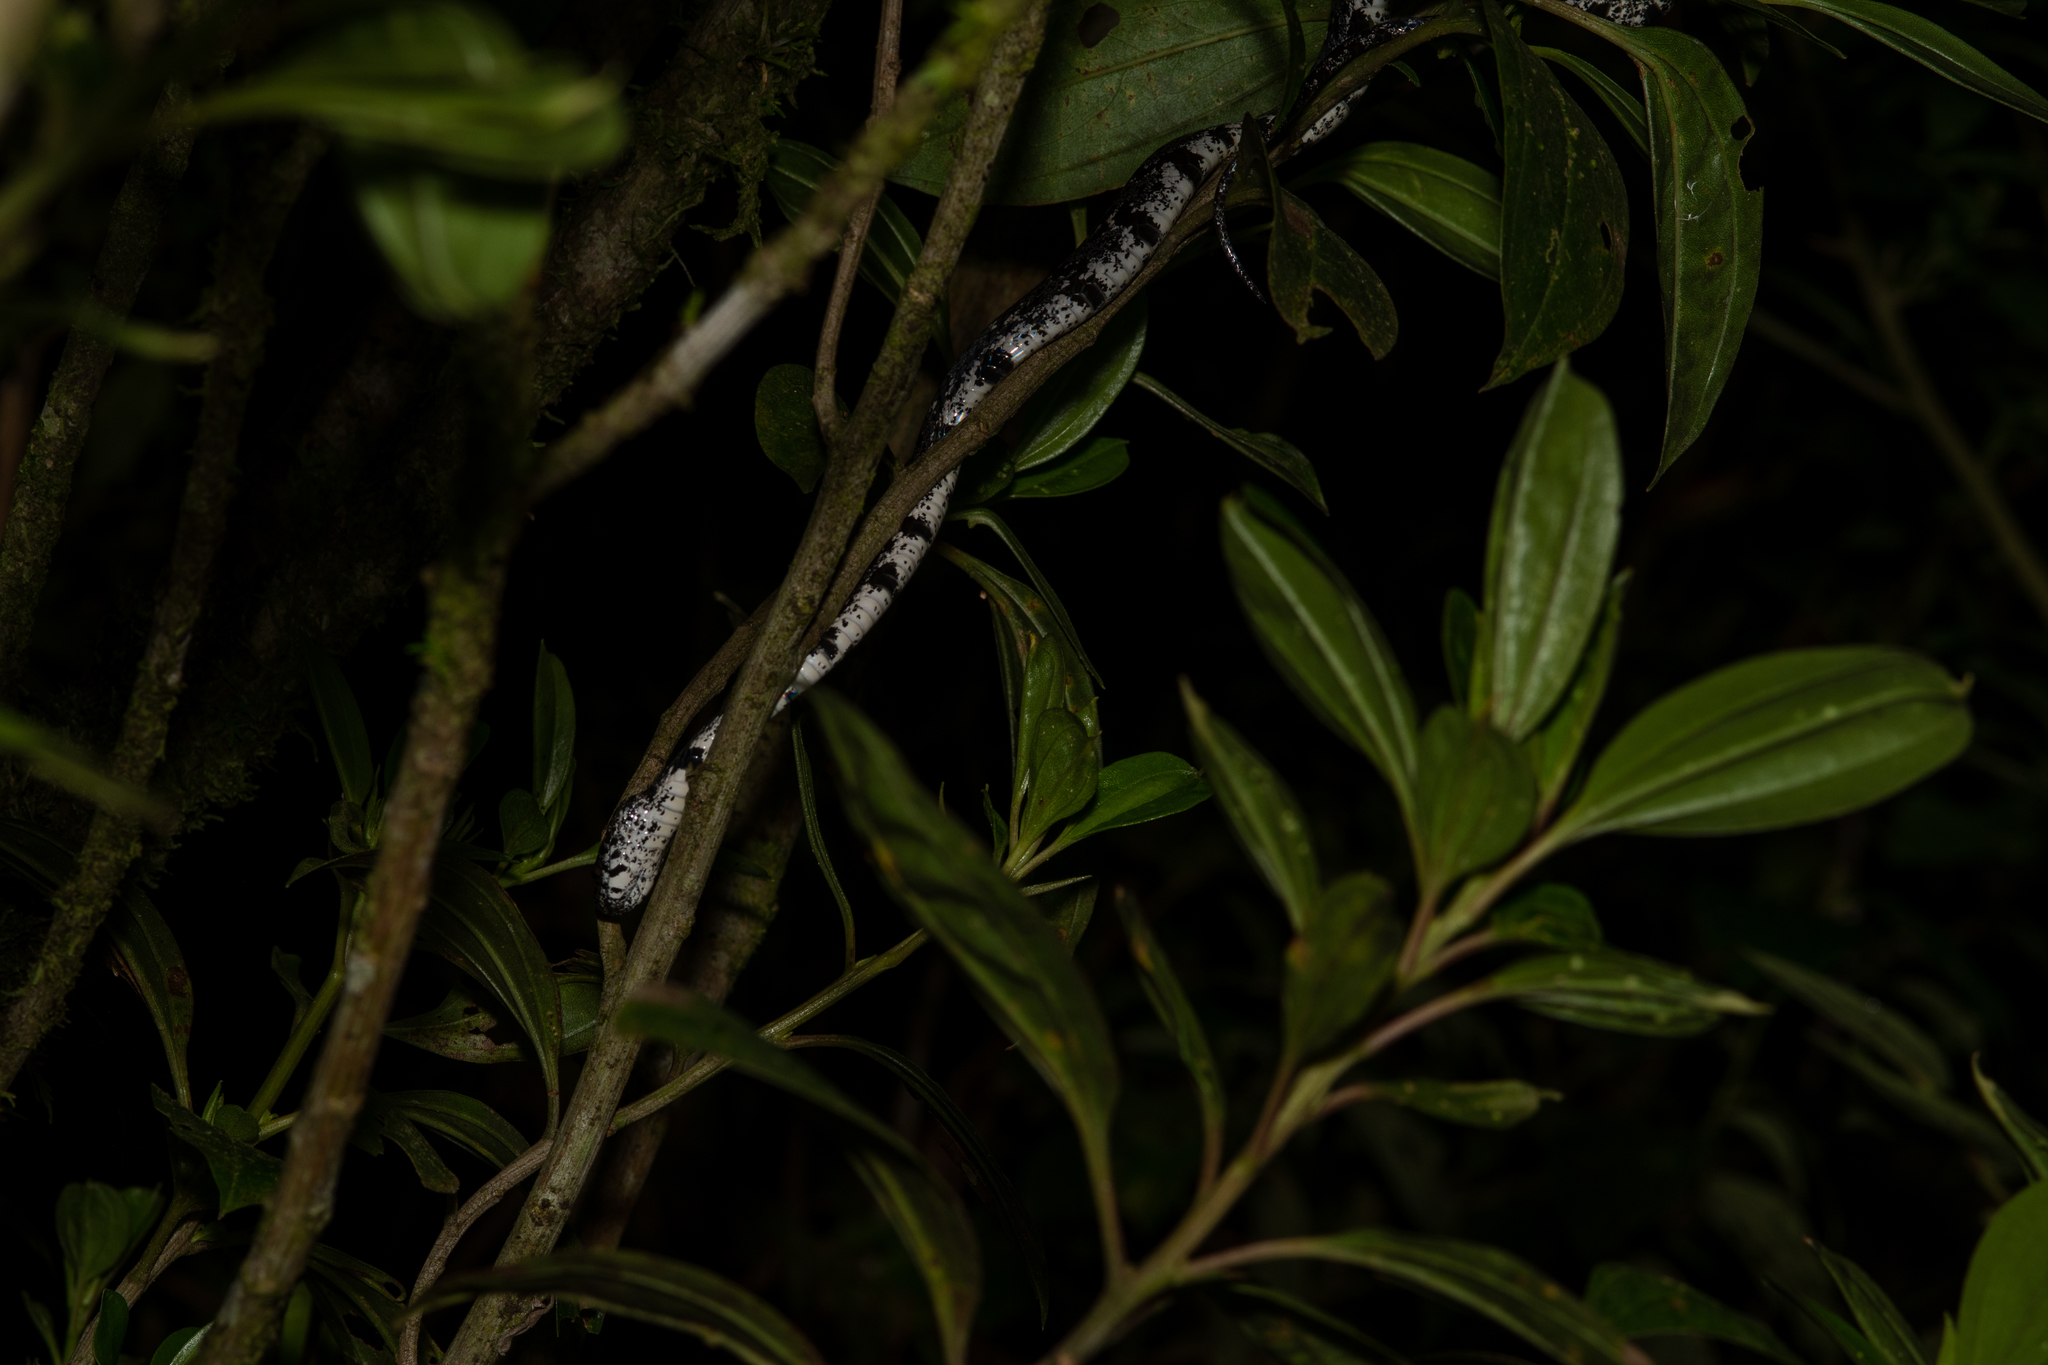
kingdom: Animalia
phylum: Chordata
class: Squamata
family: Colubridae
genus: Sibon
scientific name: Sibon nebulatus
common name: Cloudy snail-eating snake
